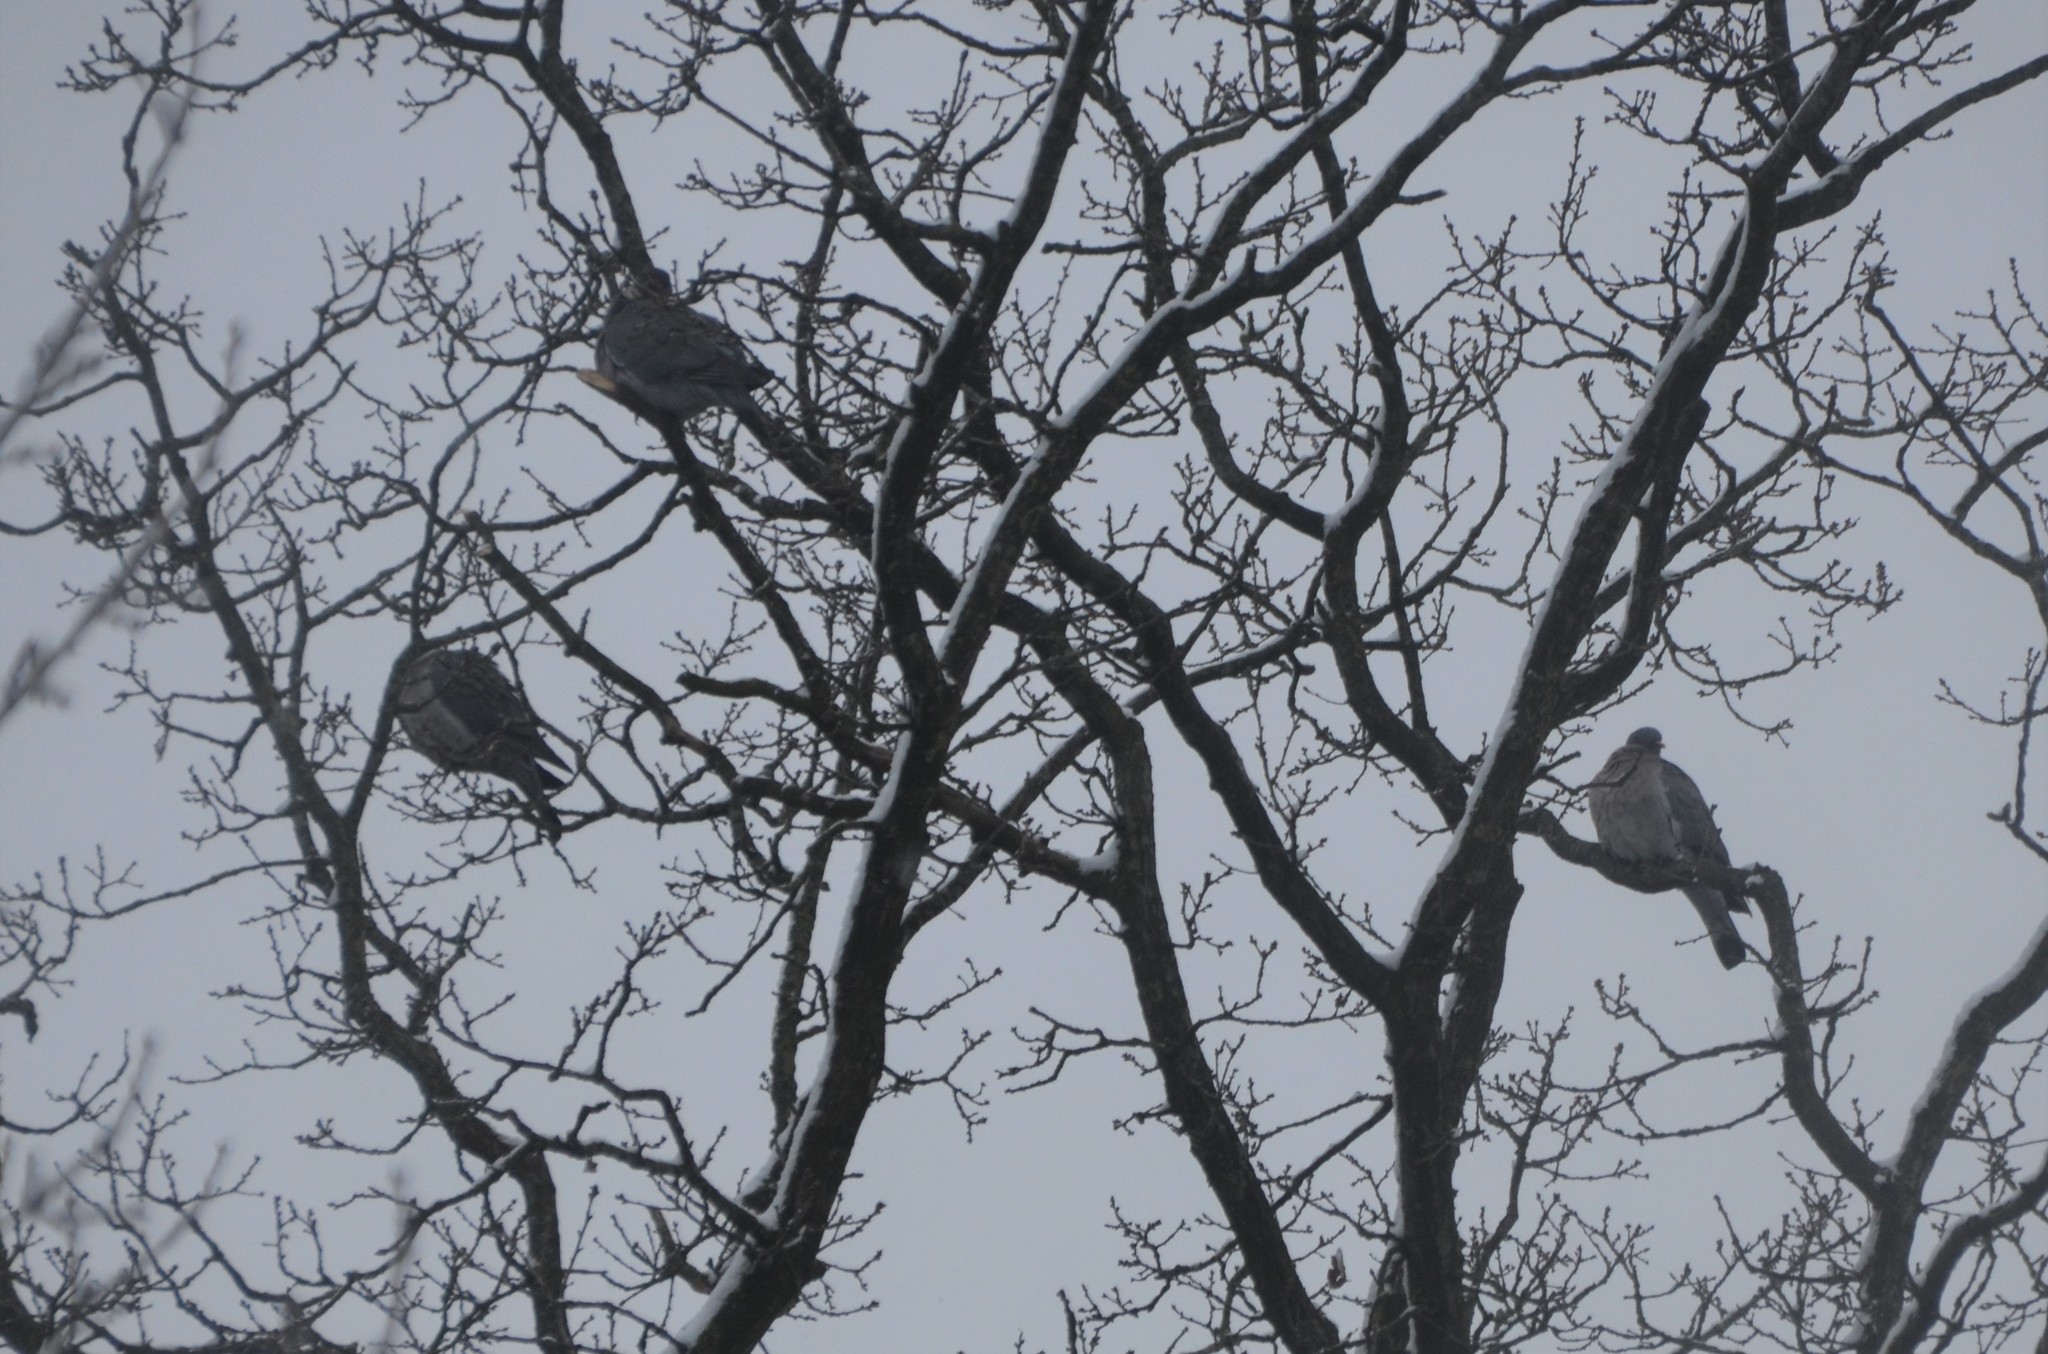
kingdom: Animalia
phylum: Chordata
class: Aves
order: Columbiformes
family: Columbidae
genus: Columba
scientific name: Columba palumbus
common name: Common wood pigeon
